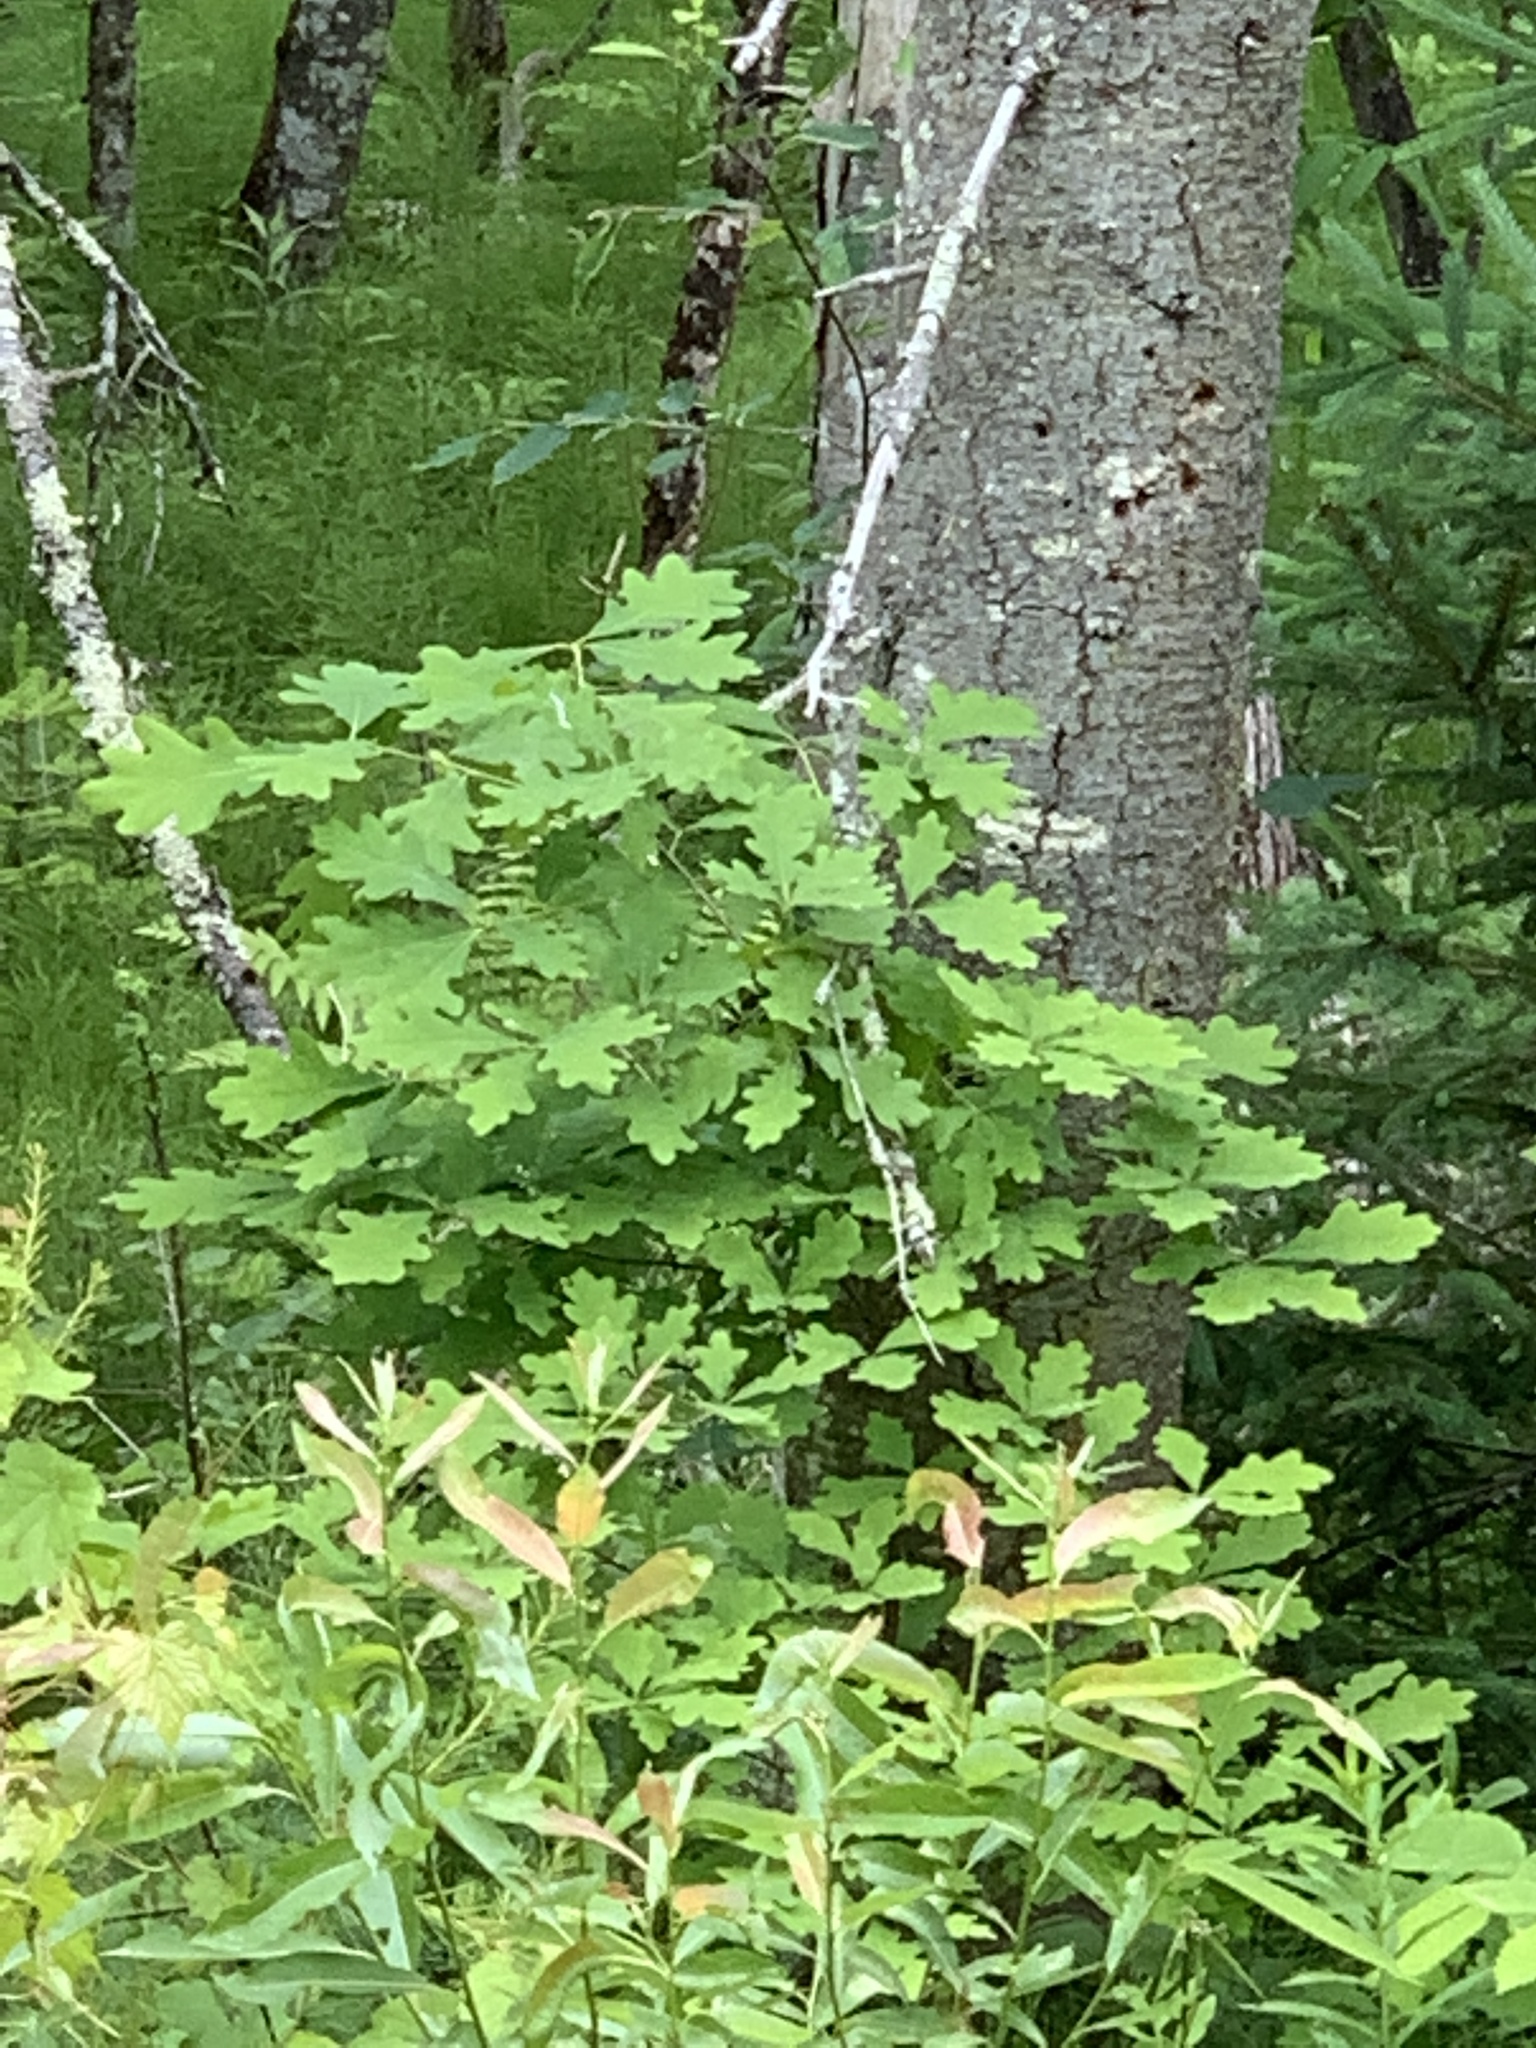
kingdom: Plantae
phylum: Tracheophyta
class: Magnoliopsida
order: Fagales
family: Fagaceae
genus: Quercus
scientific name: Quercus alba
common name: White oak
